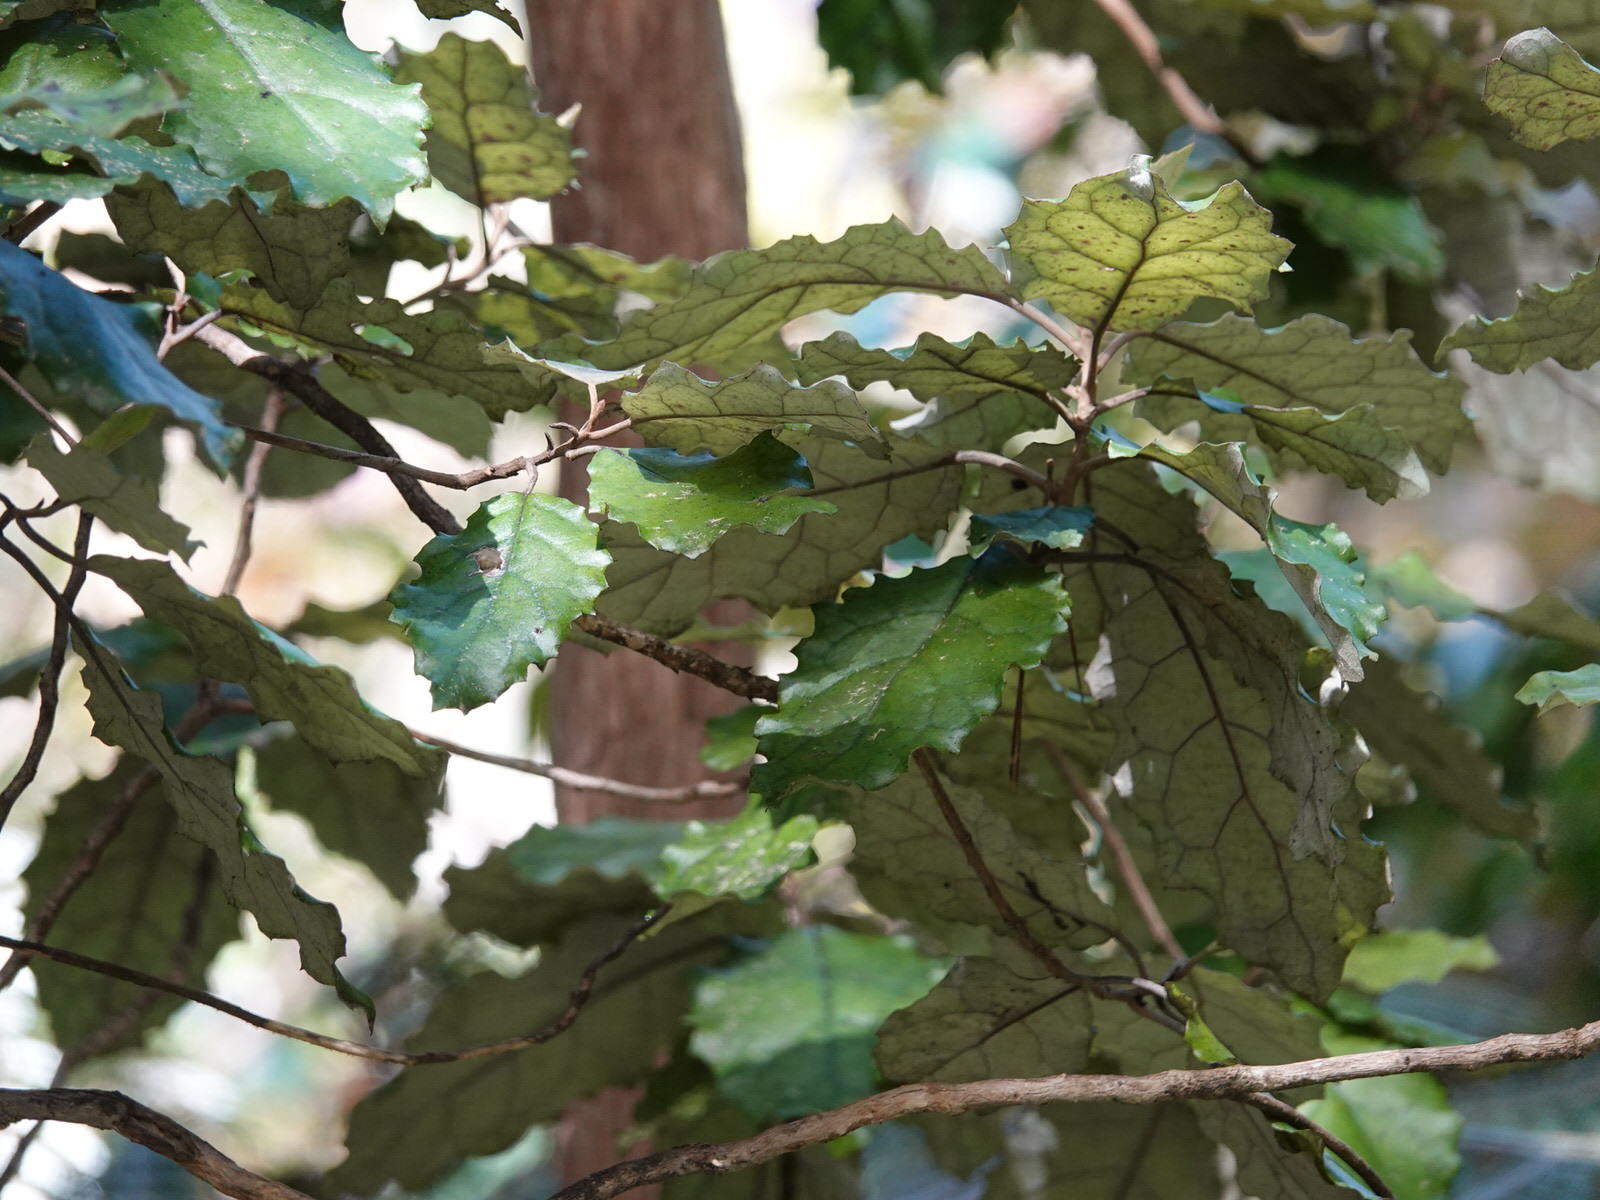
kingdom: Plantae
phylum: Tracheophyta
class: Magnoliopsida
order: Asterales
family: Asteraceae
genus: Olearia
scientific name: Olearia rani
